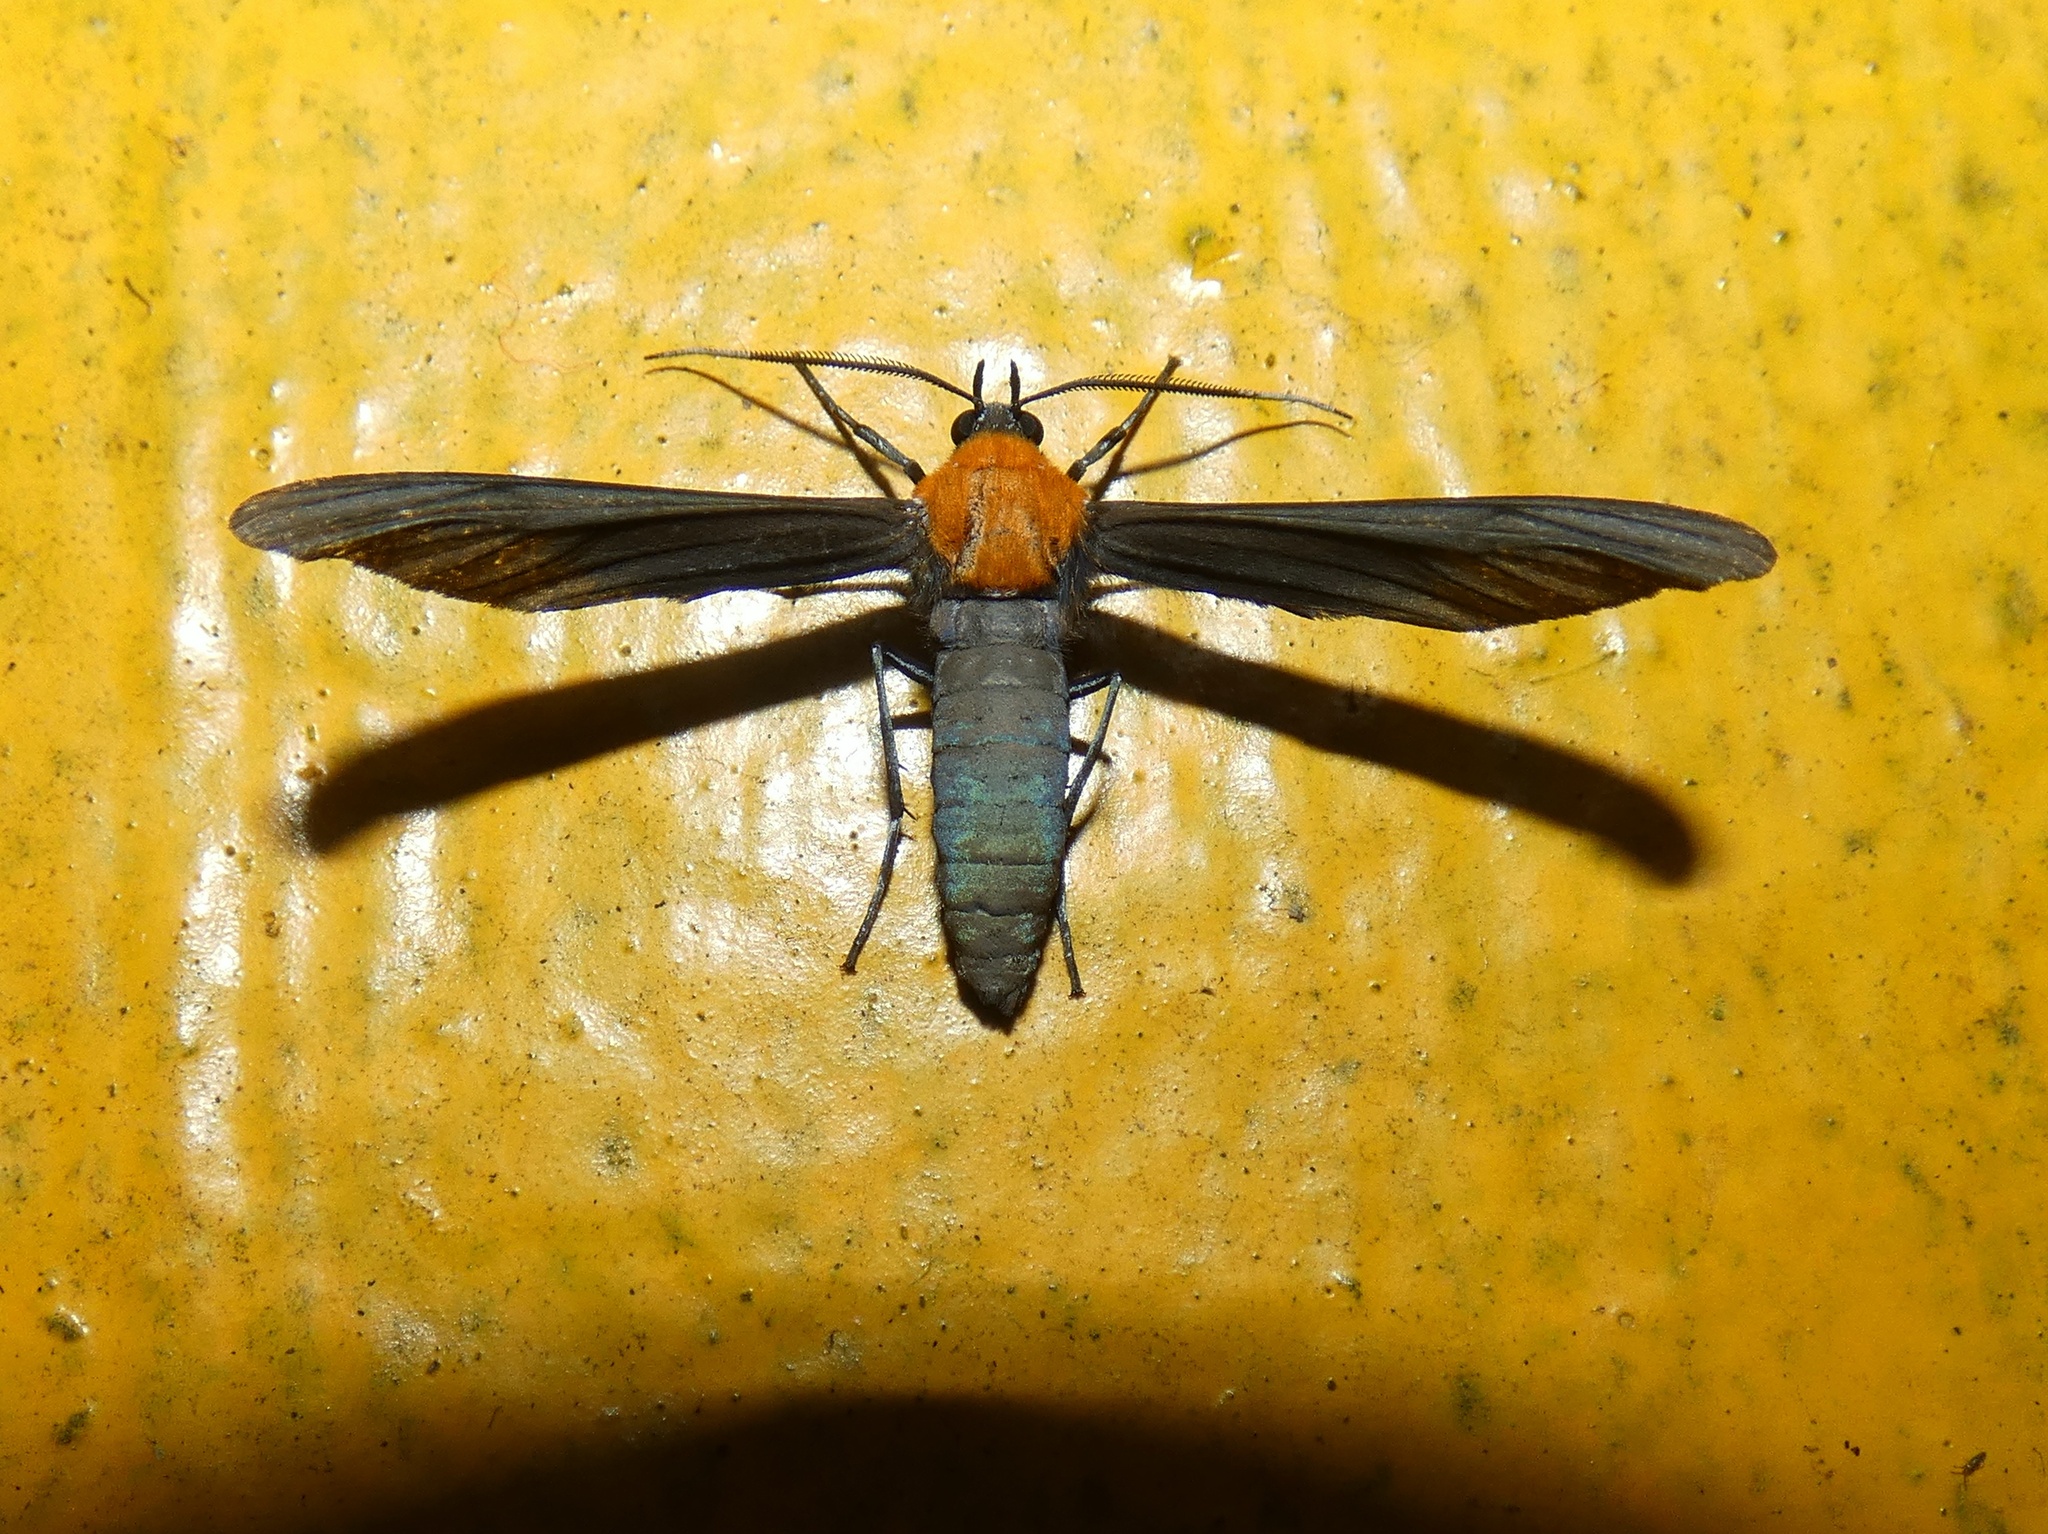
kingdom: Animalia
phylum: Arthropoda
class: Insecta
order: Lepidoptera
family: Erebidae
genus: Scena
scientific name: Scena potentia
